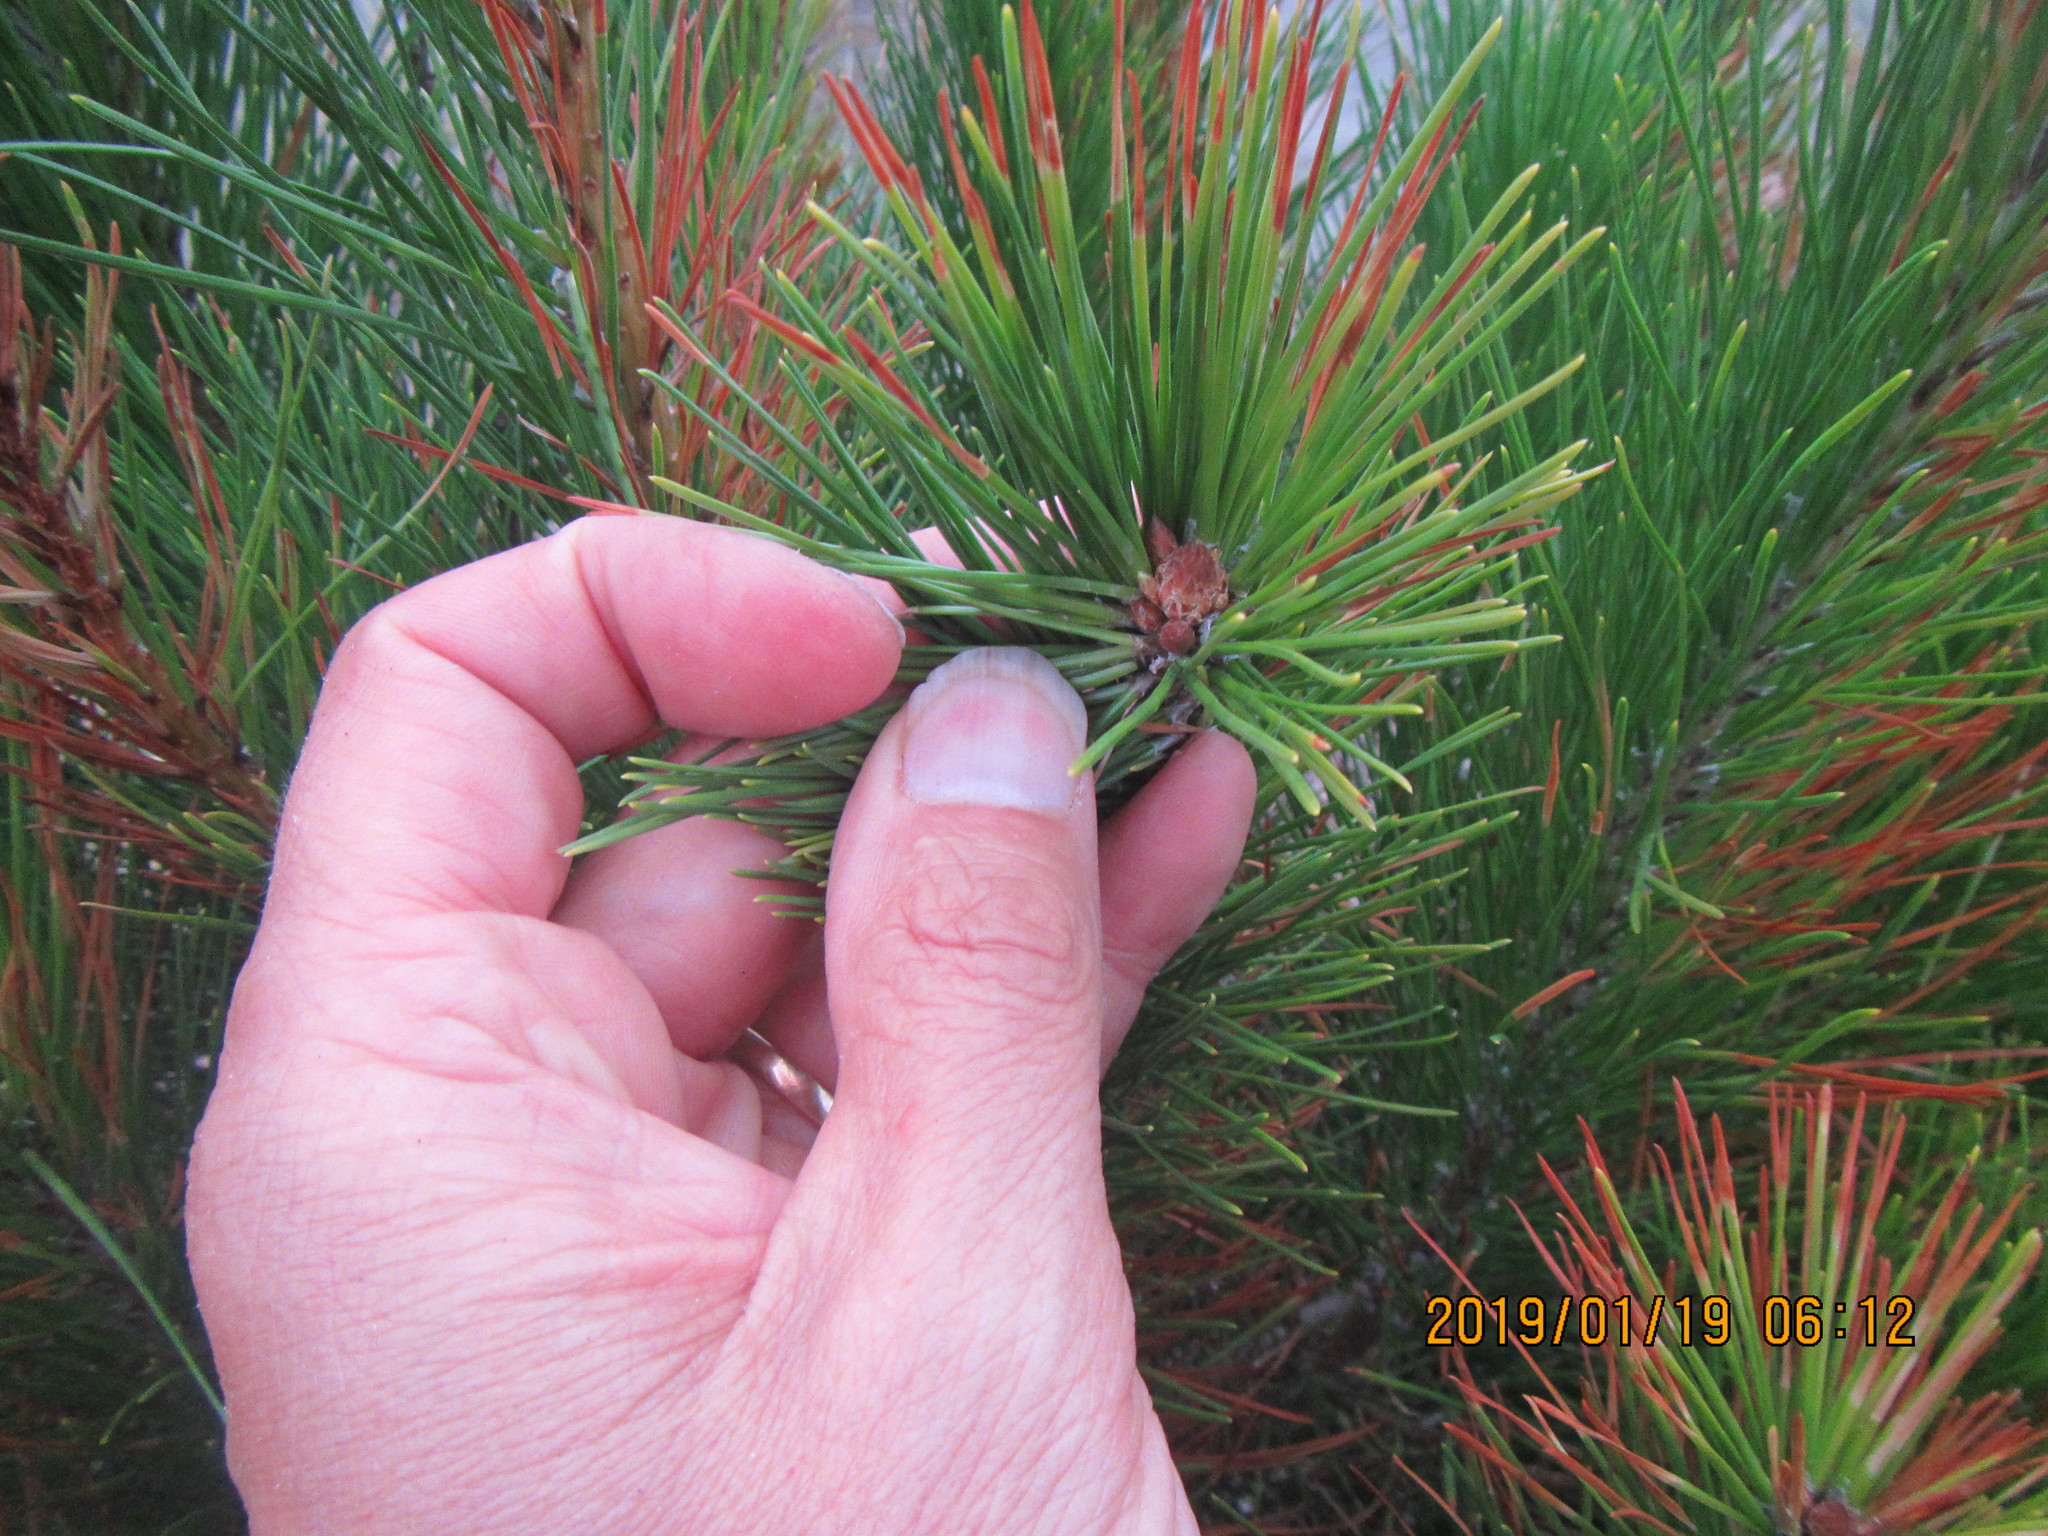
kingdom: Plantae
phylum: Tracheophyta
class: Pinopsida
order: Pinales
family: Pinaceae
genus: Pinus
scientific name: Pinus radiata
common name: Monterey pine
